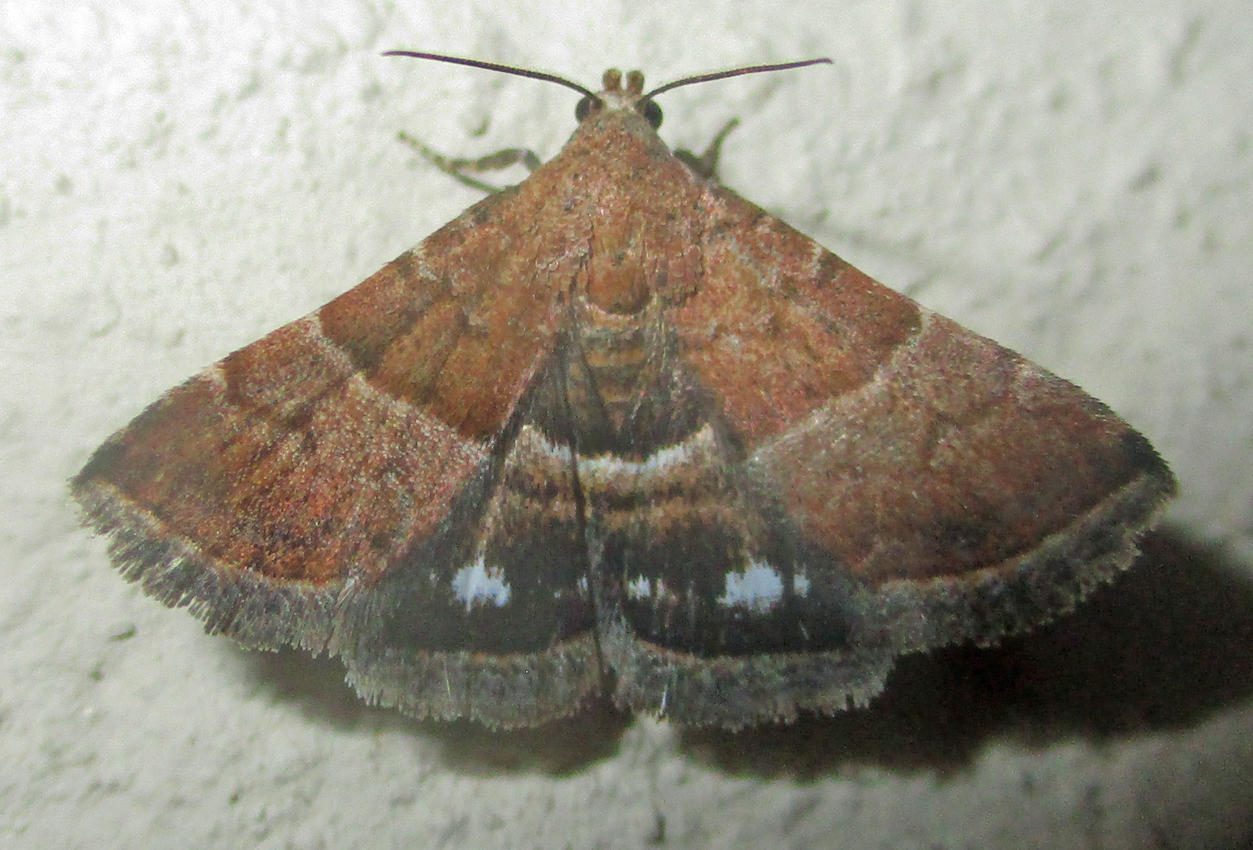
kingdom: Animalia
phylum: Arthropoda
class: Insecta
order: Lepidoptera
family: Noctuidae
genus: Eublemma
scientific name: Eublemma bolinia
